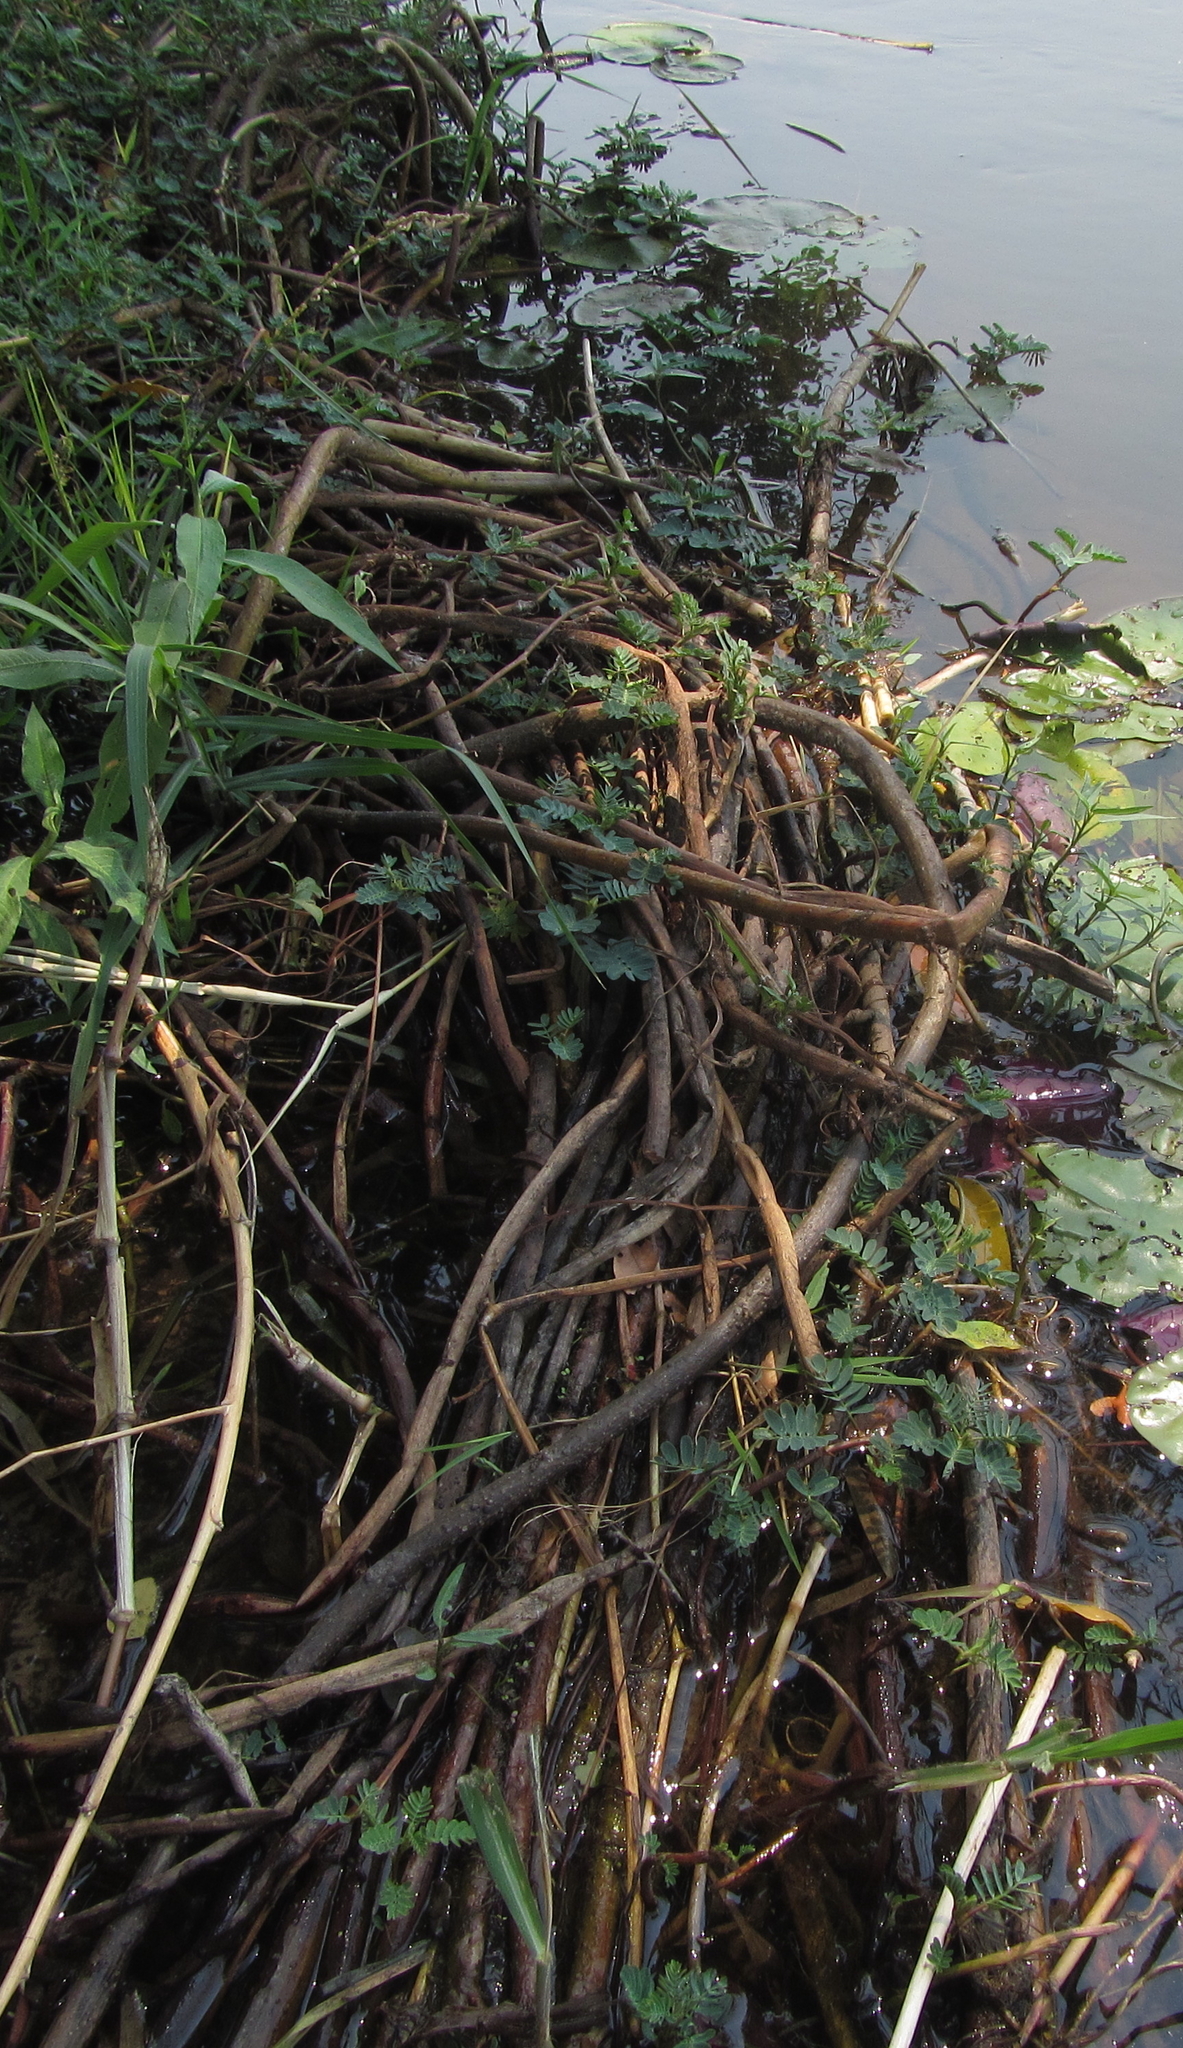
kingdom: Plantae
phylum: Tracheophyta
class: Magnoliopsida
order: Fabales
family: Fabaceae
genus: Aeschynomene
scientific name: Aeschynomene fluitans
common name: Giant water sensitive plant
